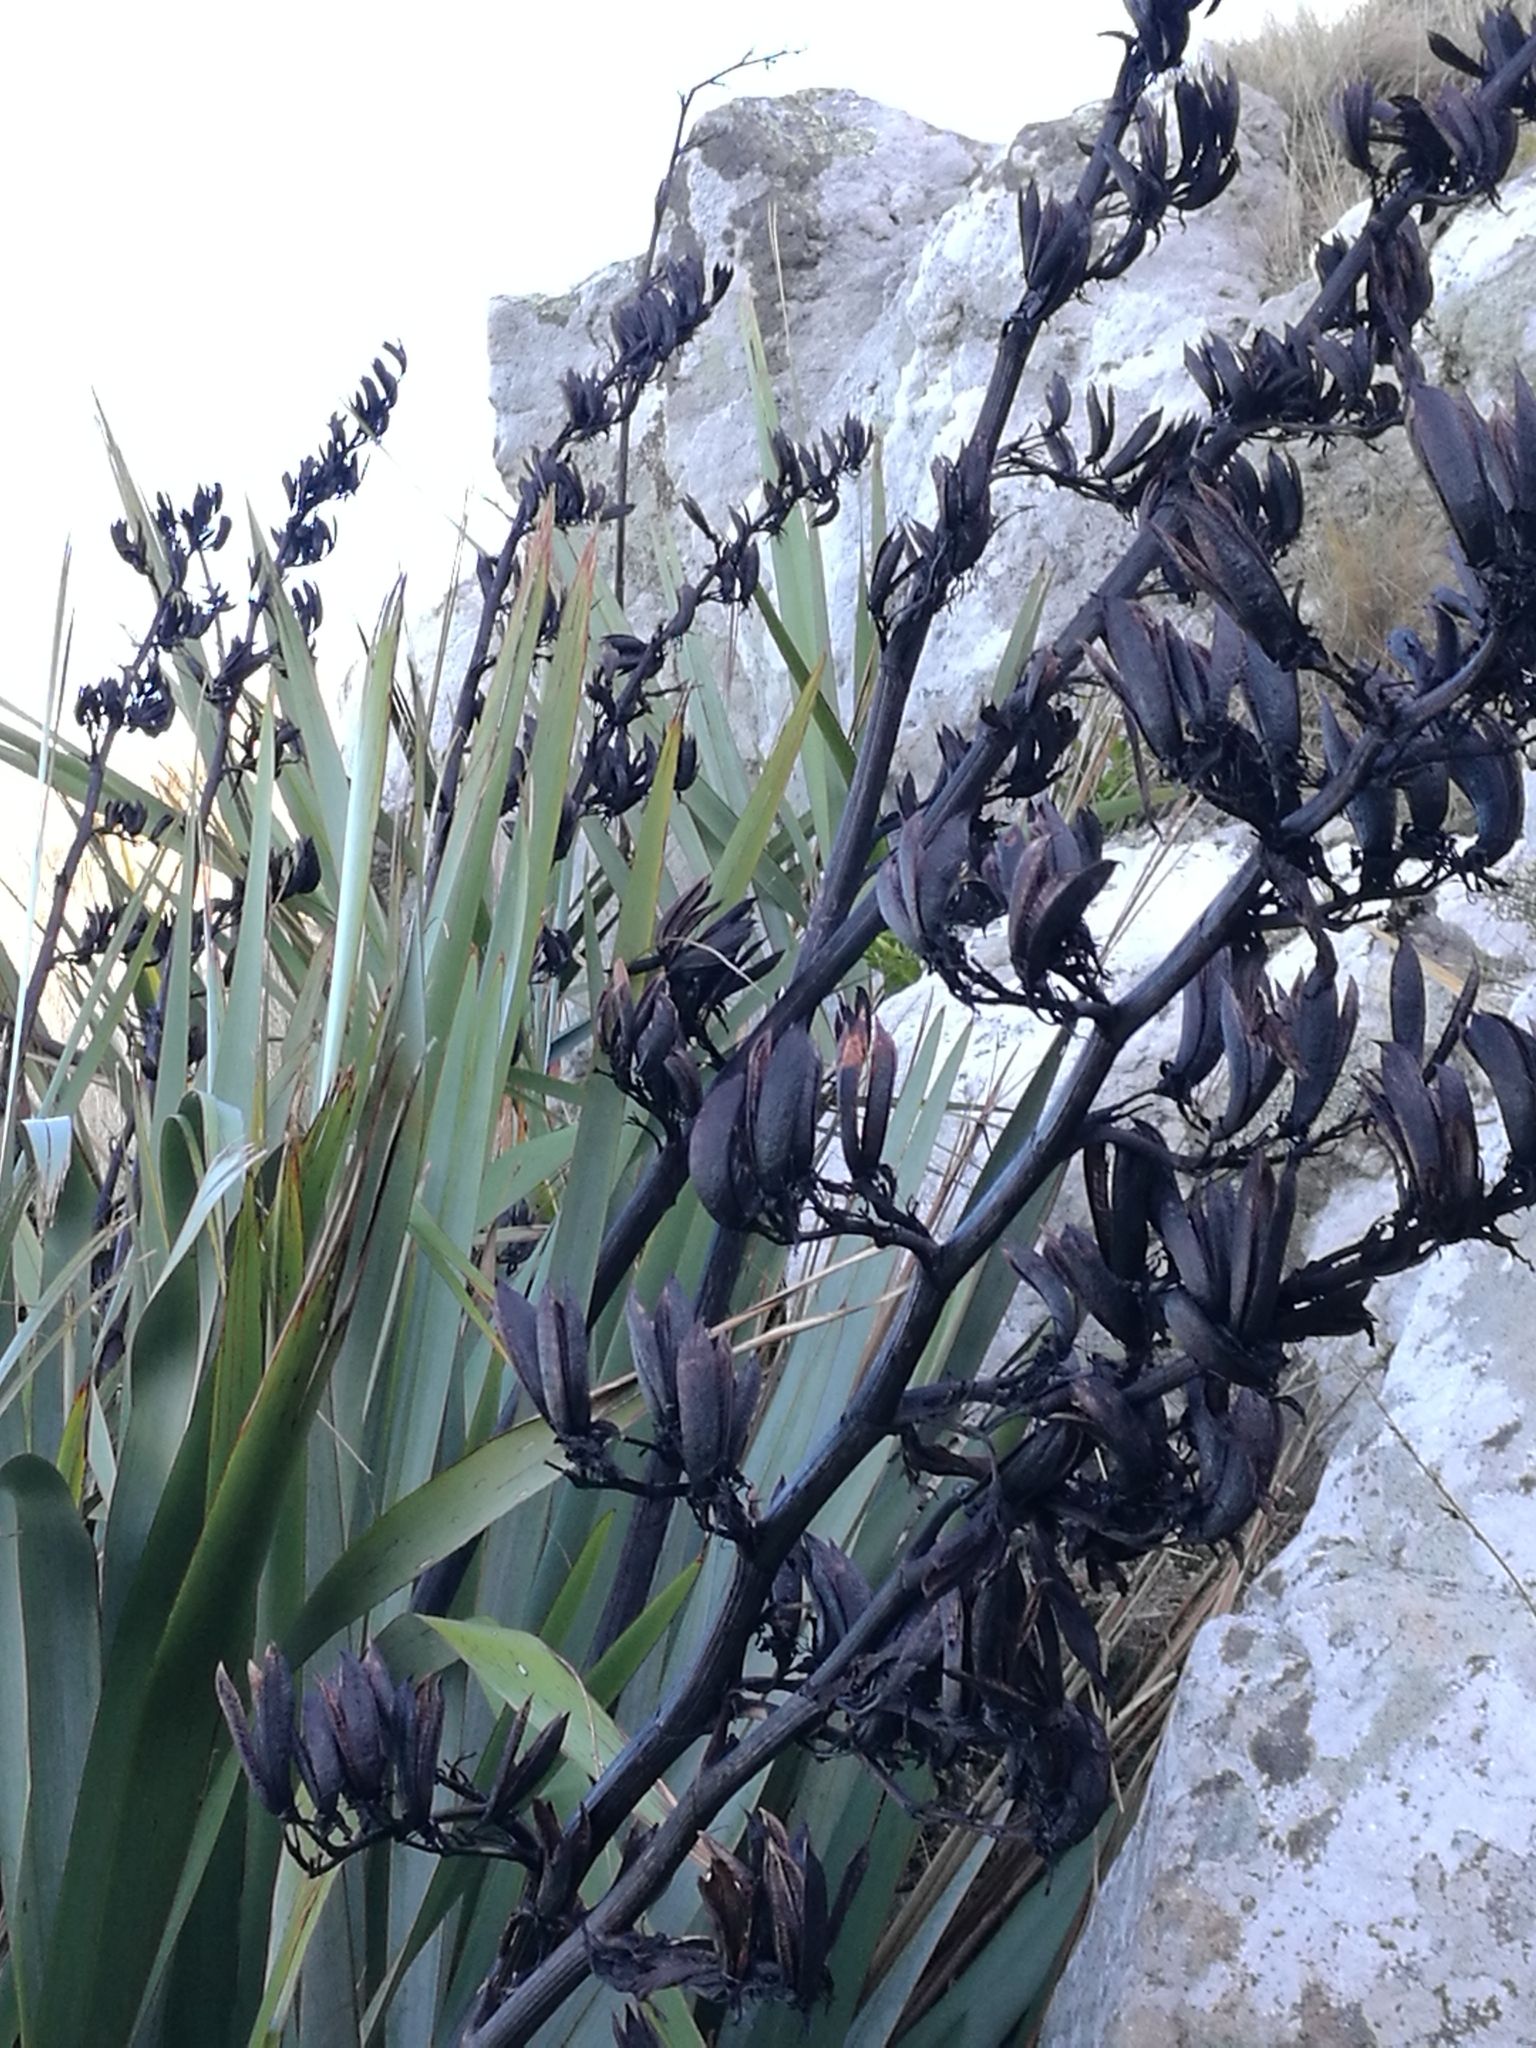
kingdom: Plantae
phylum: Tracheophyta
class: Liliopsida
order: Asparagales
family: Asphodelaceae
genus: Phormium
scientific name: Phormium tenax
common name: New zealand flax
